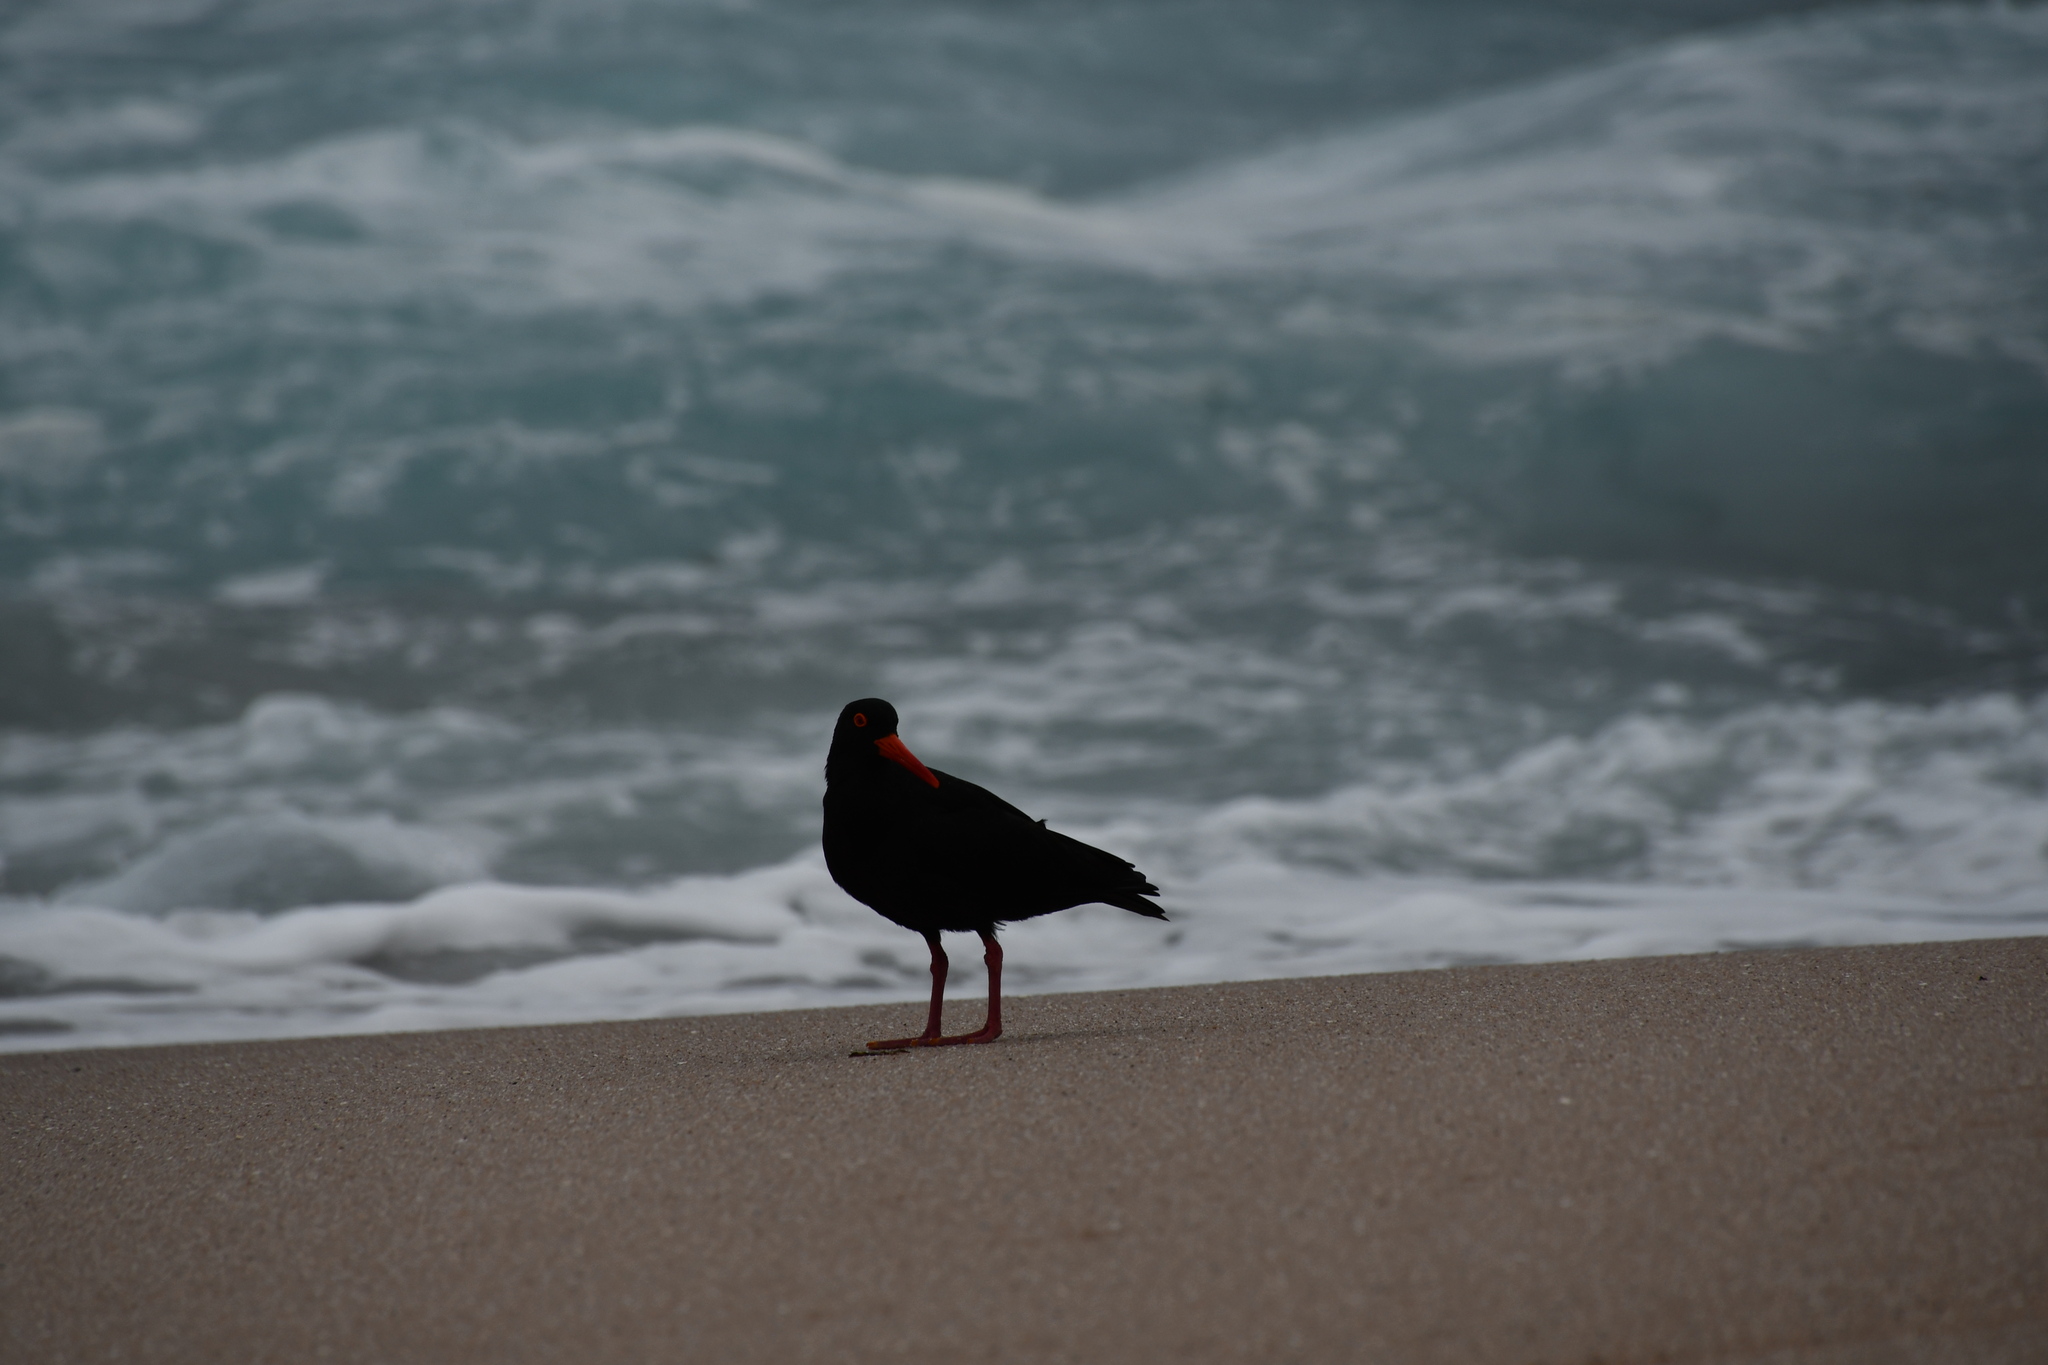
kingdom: Animalia
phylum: Chordata
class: Aves
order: Charadriiformes
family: Haematopodidae
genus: Haematopus
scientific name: Haematopus fuliginosus
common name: Sooty oystercatcher
